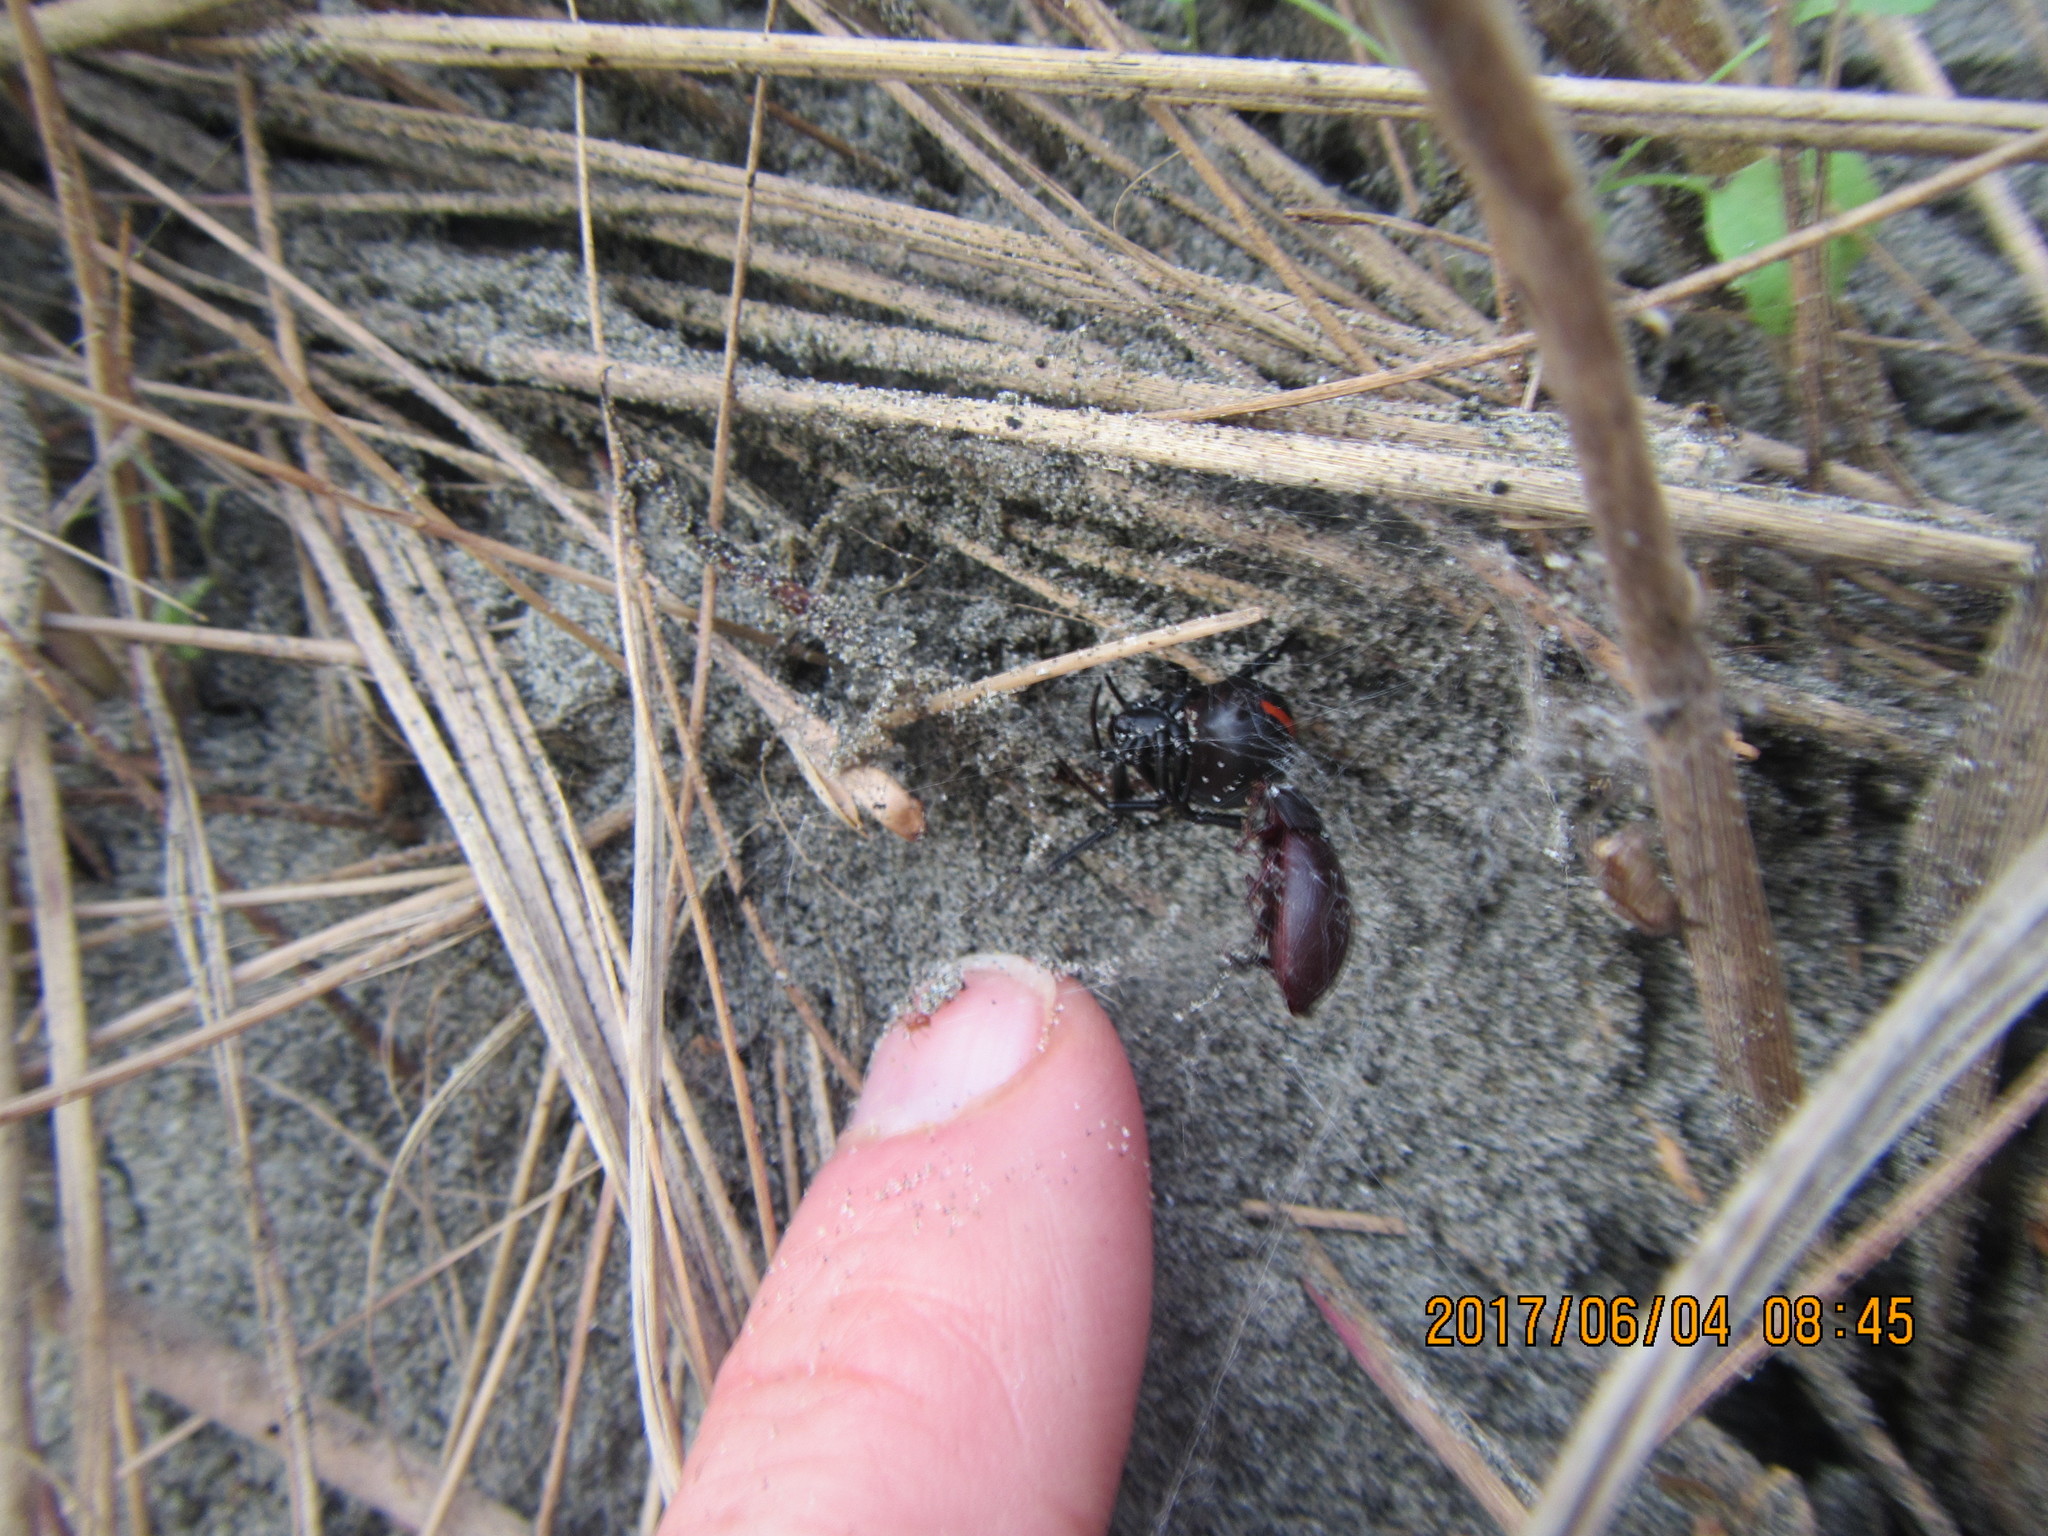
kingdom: Animalia
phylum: Arthropoda
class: Arachnida
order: Araneae
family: Theridiidae
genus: Latrodectus
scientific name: Latrodectus katipo
